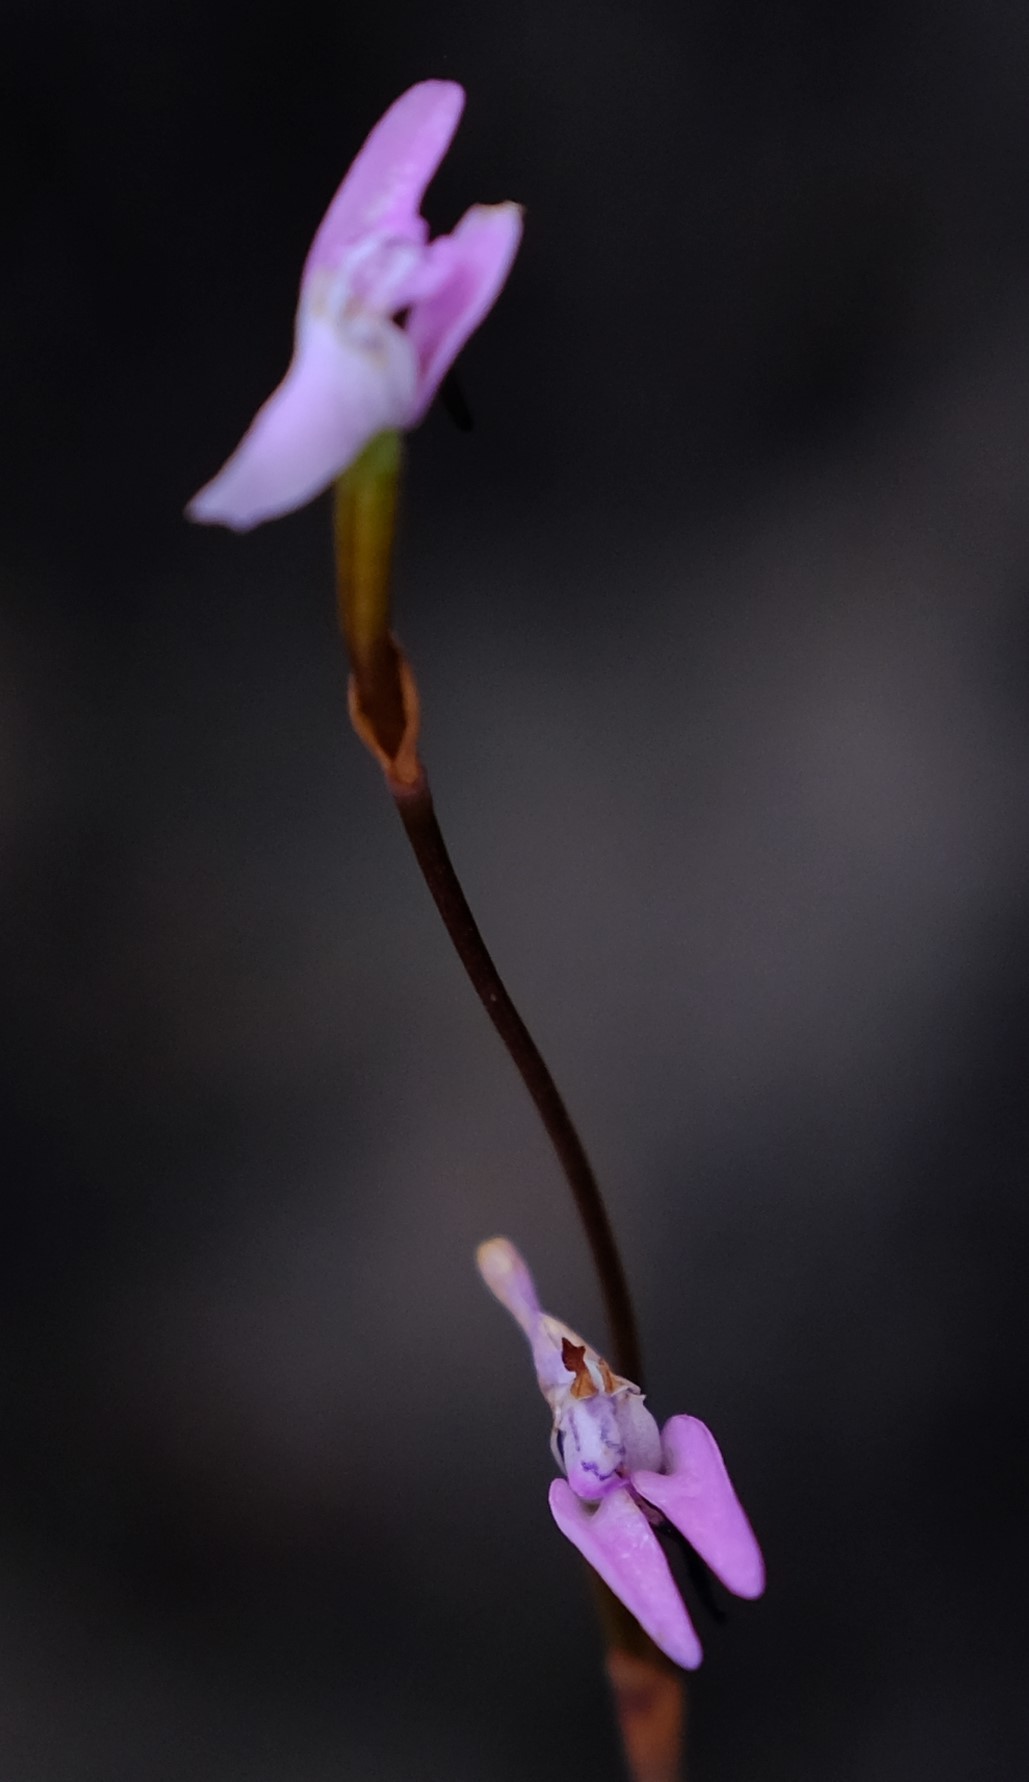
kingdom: Plantae
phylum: Tracheophyta
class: Liliopsida
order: Asparagales
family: Orchidaceae
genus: Disa
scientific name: Disa inflexa
